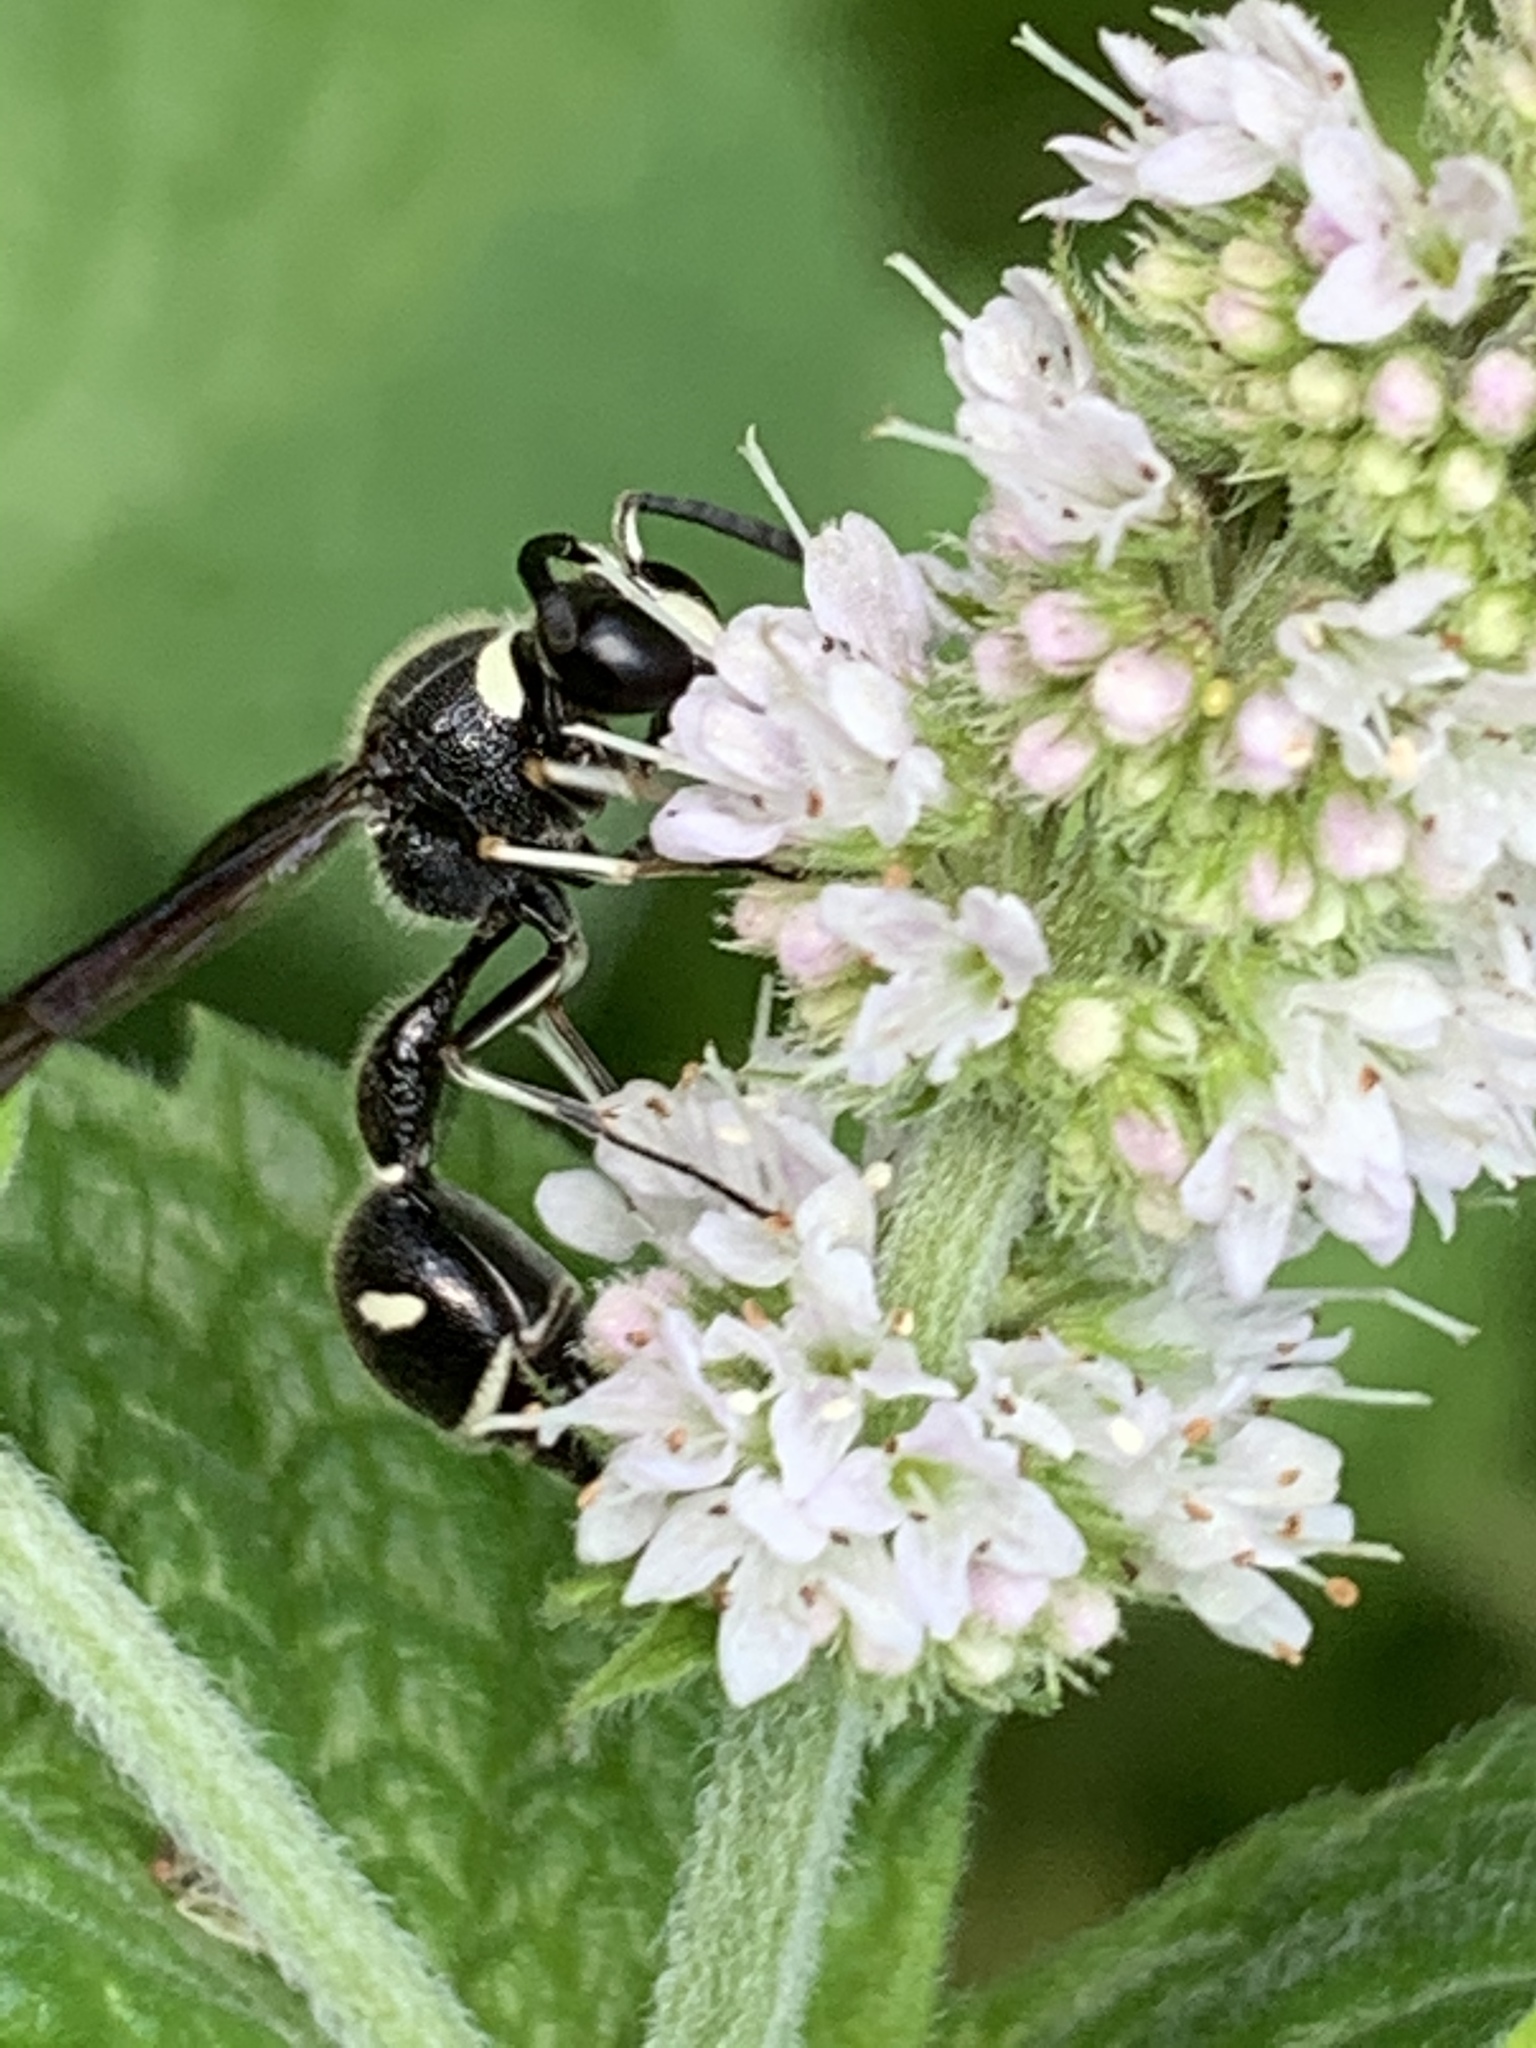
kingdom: Animalia
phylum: Arthropoda
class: Insecta
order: Hymenoptera
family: Vespidae
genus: Eumenes
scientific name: Eumenes fraternus
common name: Fraternal potter wasp
